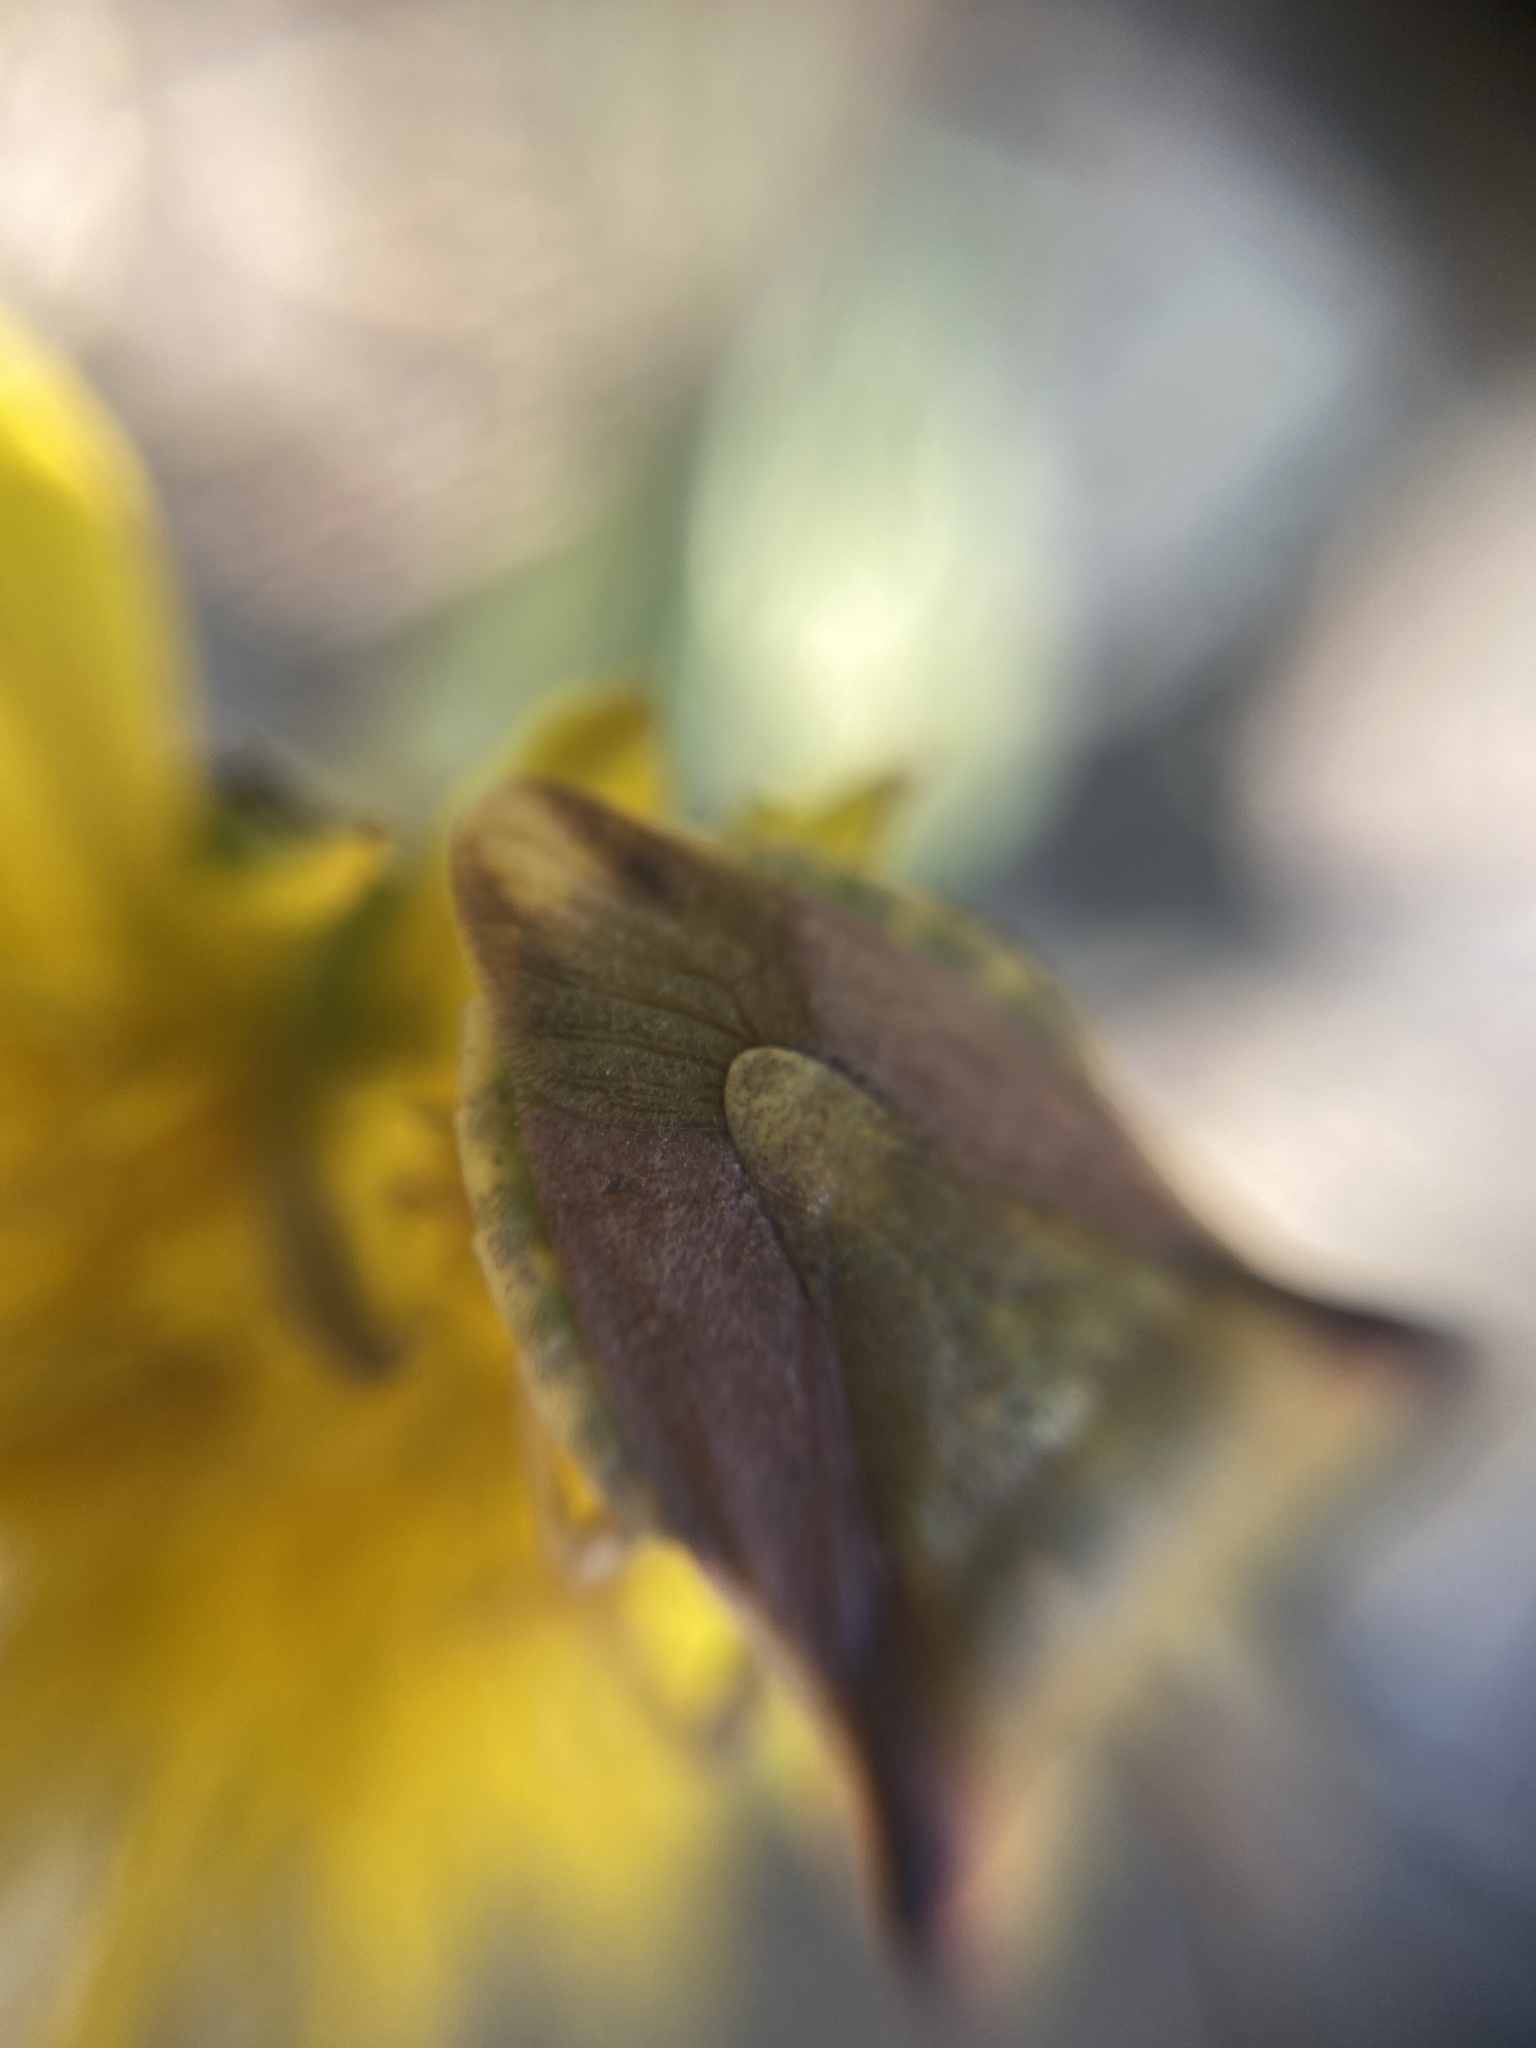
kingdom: Animalia
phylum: Arthropoda
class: Insecta
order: Hemiptera
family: Pentatomidae
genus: Carpocoris
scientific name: Carpocoris fuscispinus
